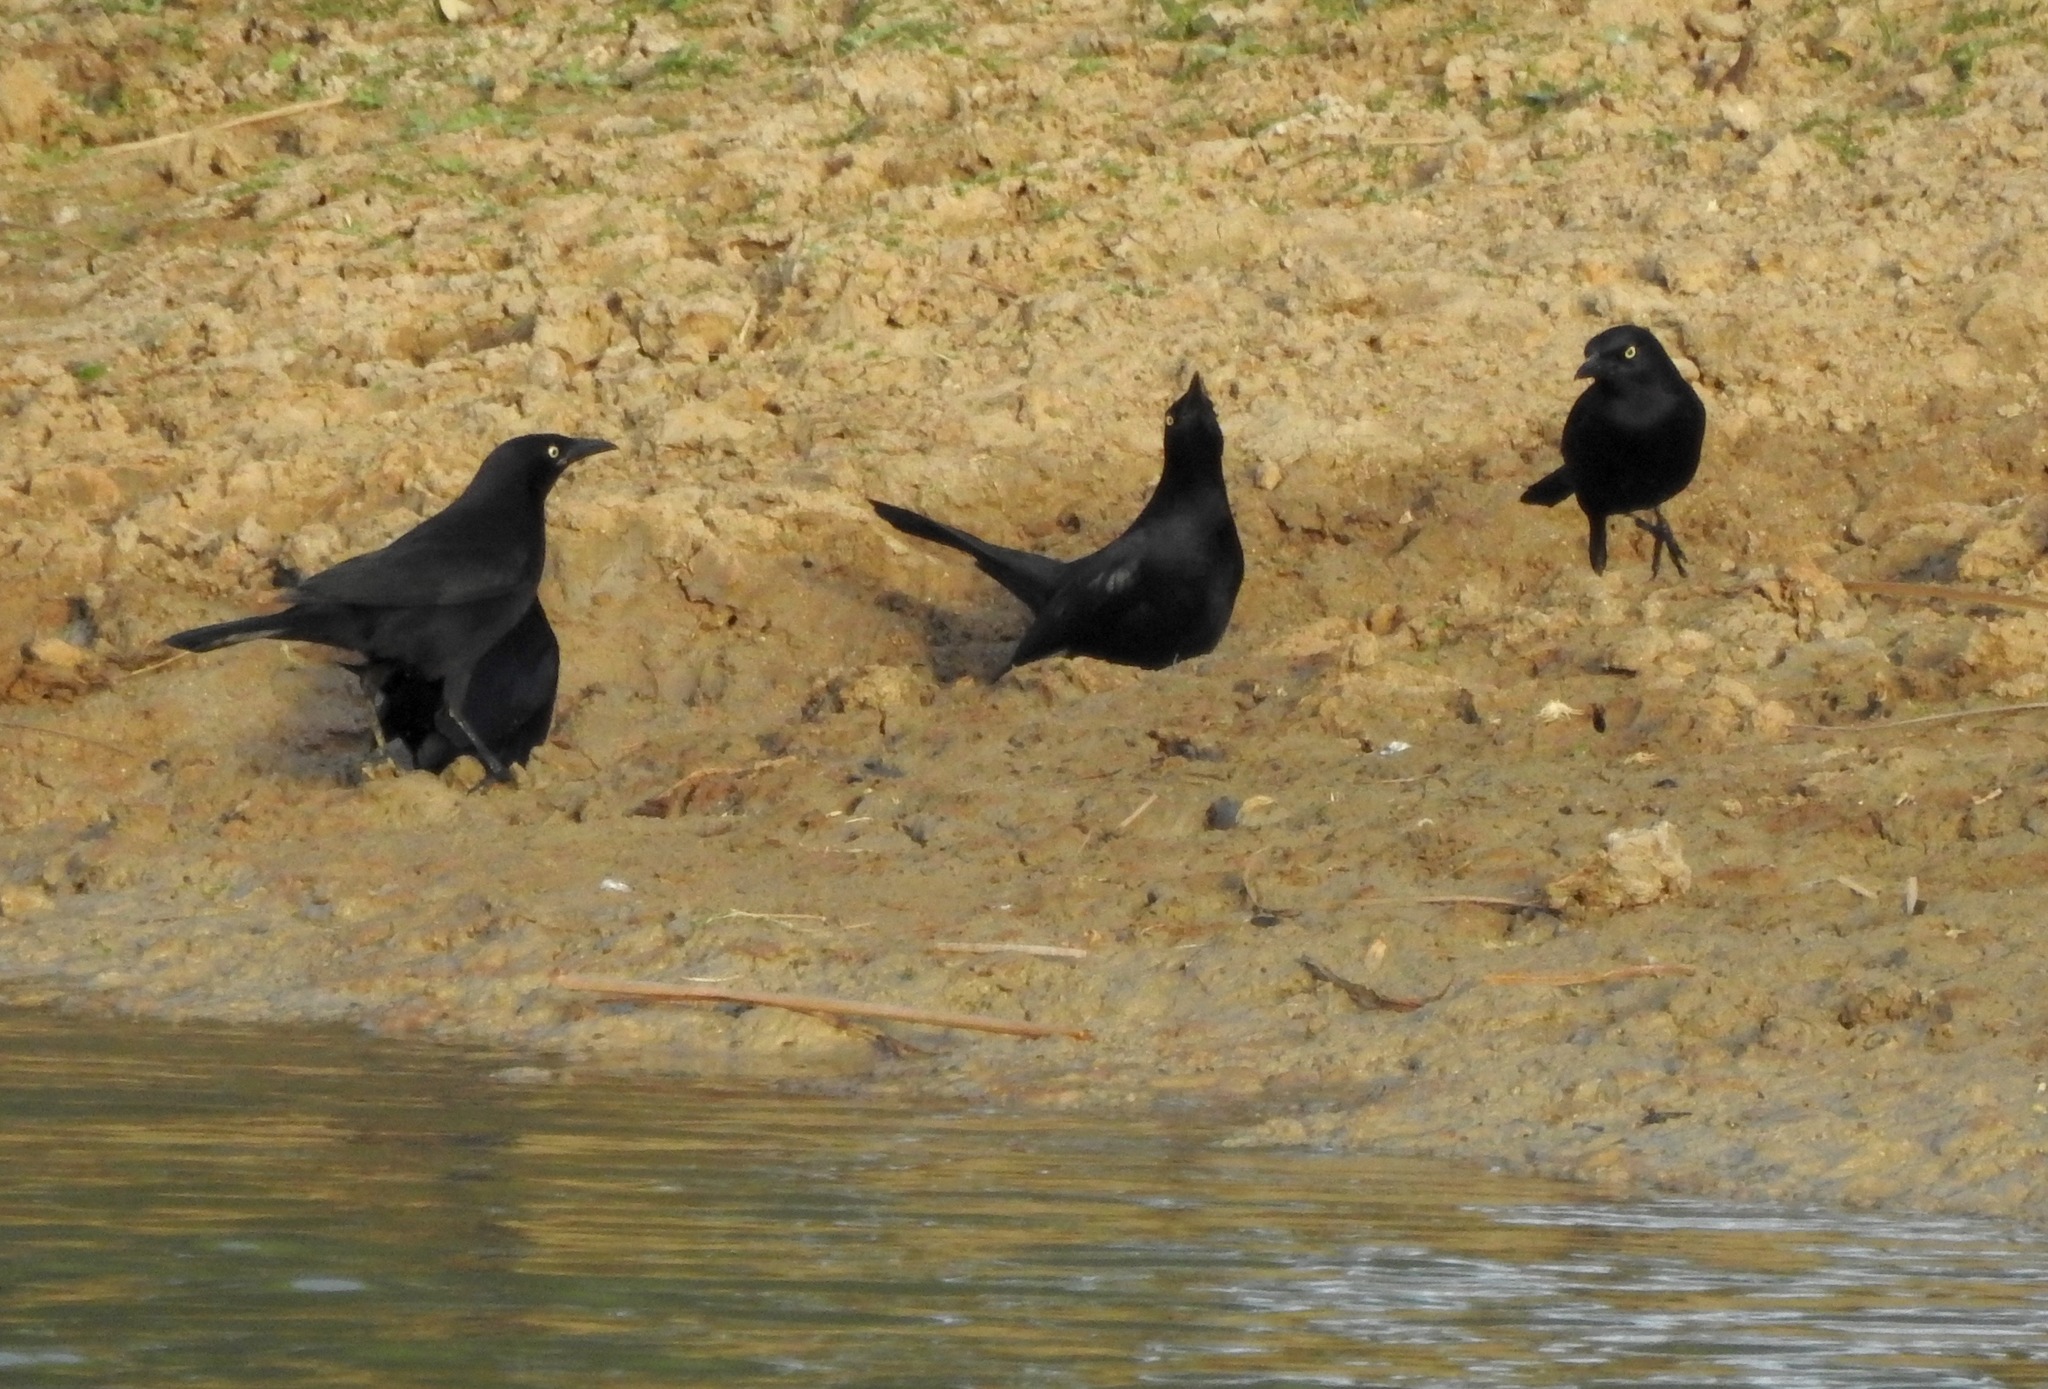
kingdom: Animalia
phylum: Chordata
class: Aves
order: Passeriformes
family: Icteridae
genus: Quiscalus
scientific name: Quiscalus lugubris
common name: Carib grackle
